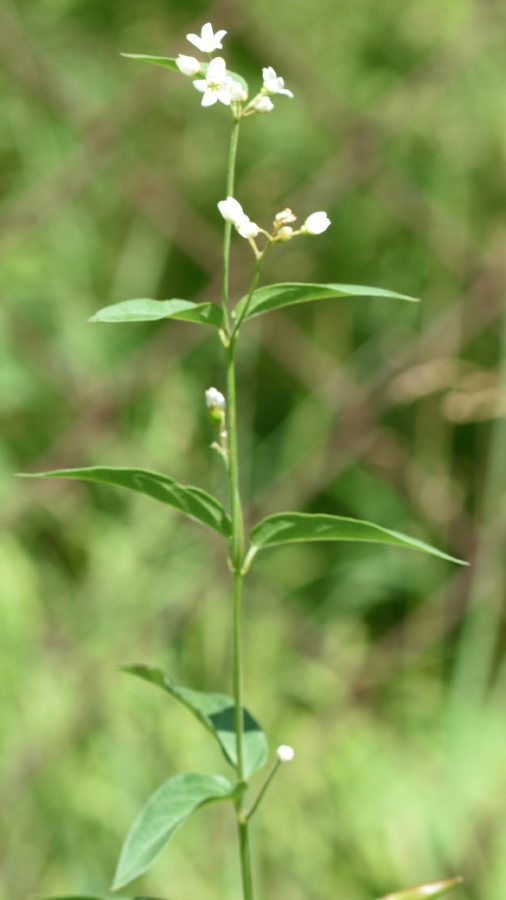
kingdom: Plantae
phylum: Tracheophyta
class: Magnoliopsida
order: Gentianales
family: Apocynaceae
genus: Vincetoxicum
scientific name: Vincetoxicum hirundinaria
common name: White swallowwort
